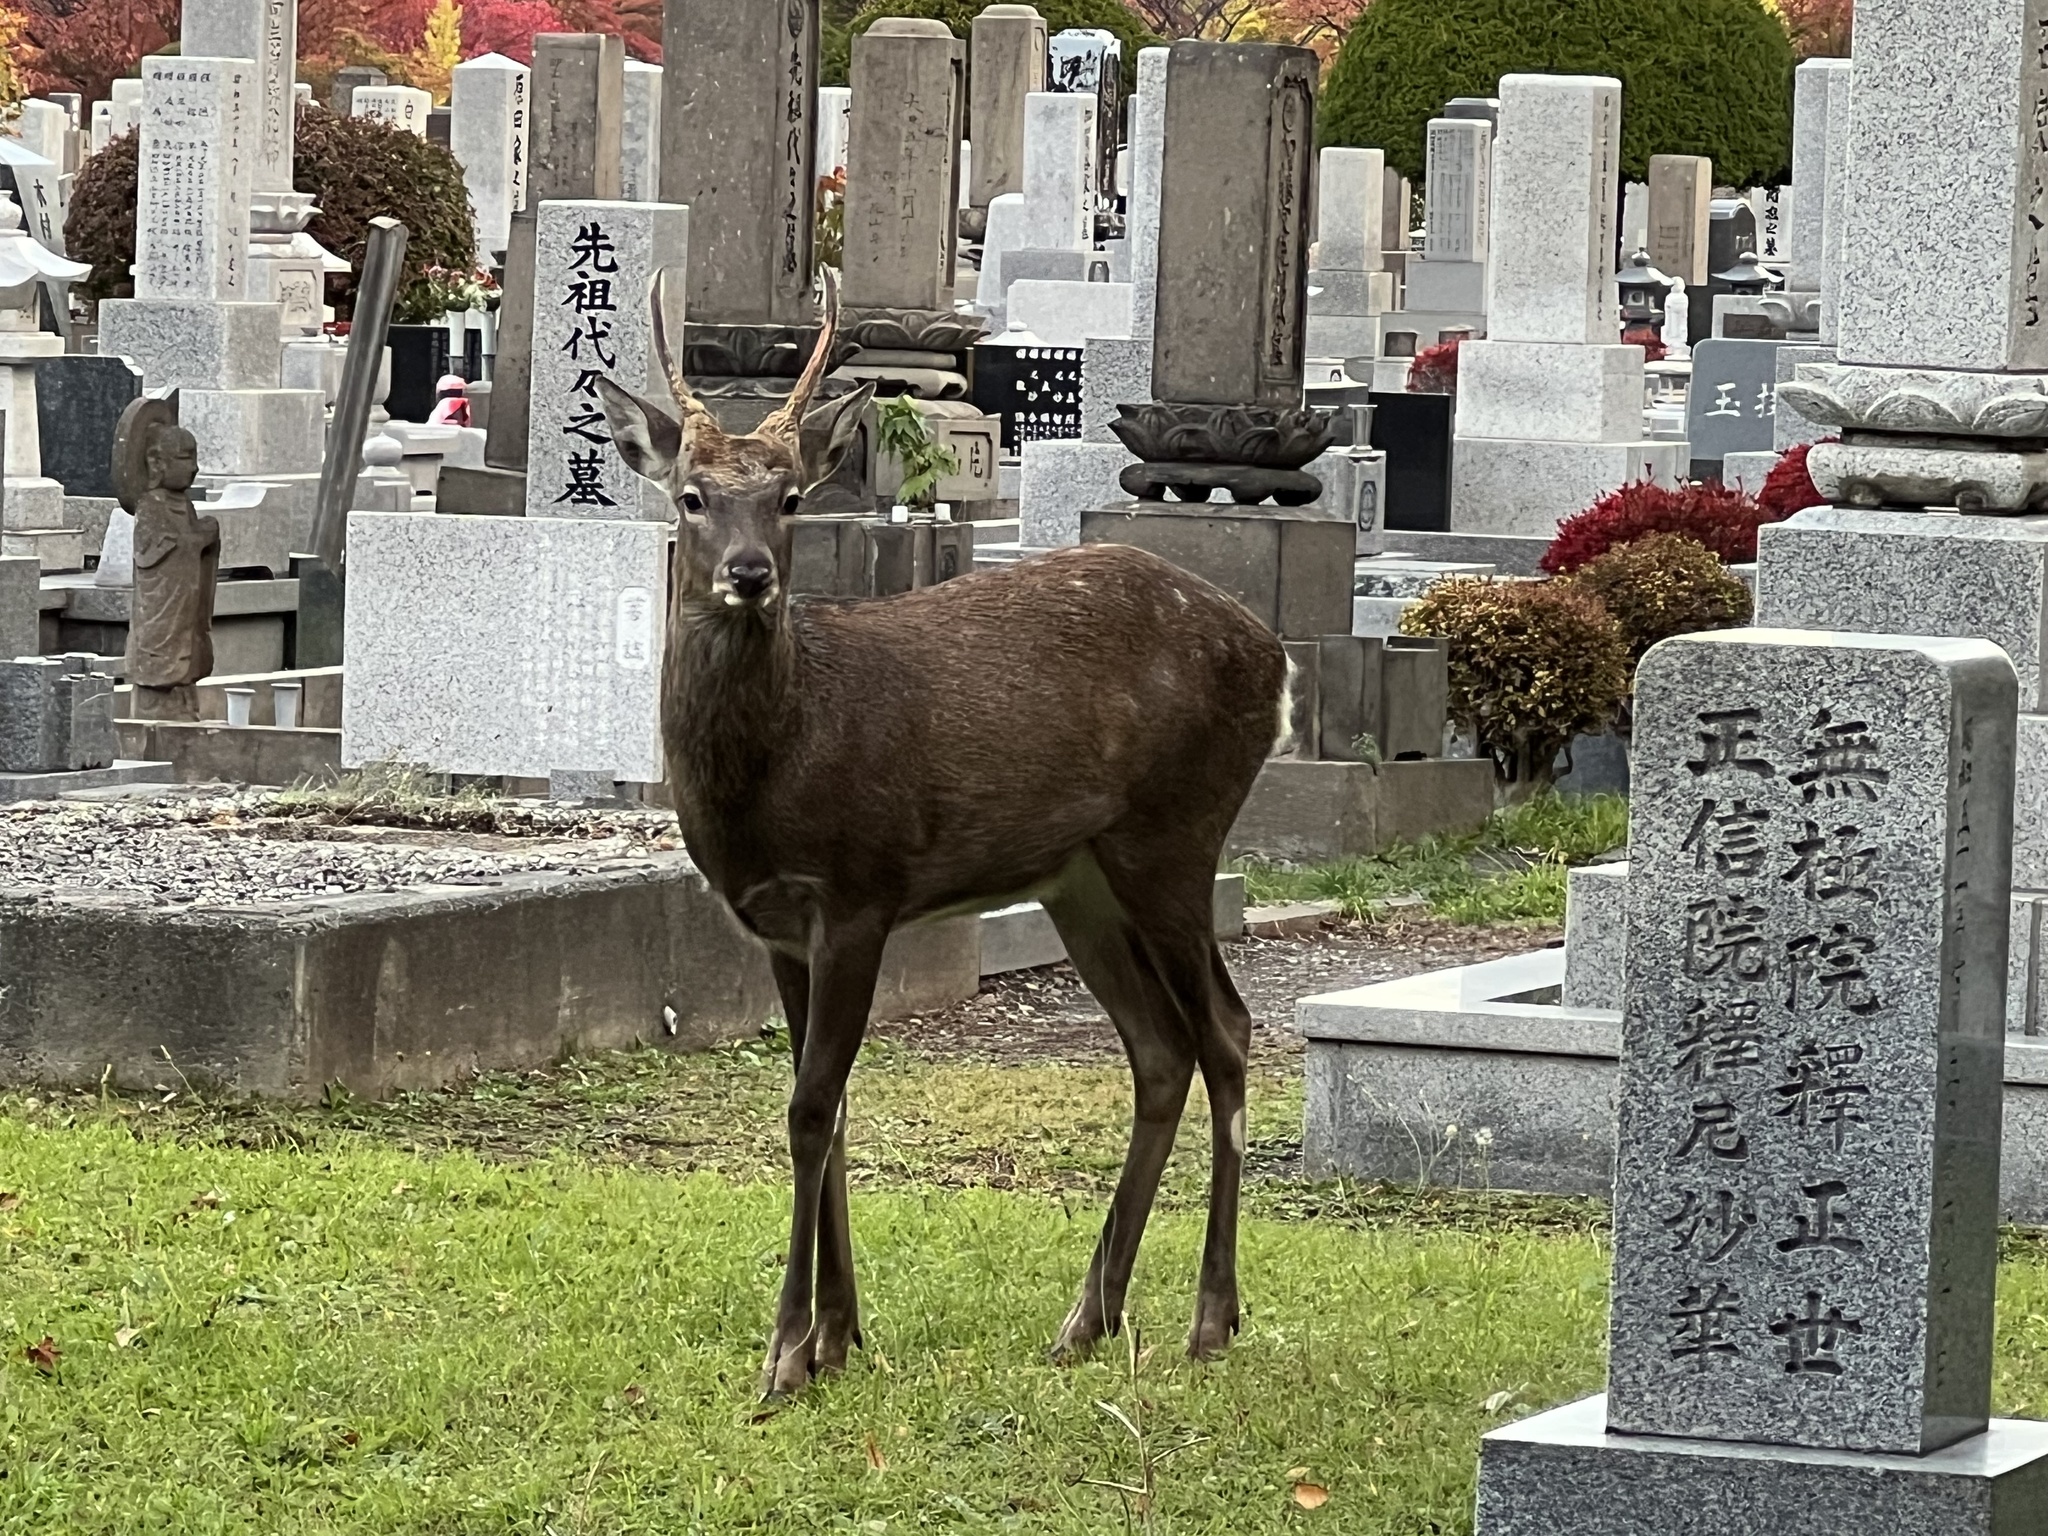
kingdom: Animalia
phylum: Chordata
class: Mammalia
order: Artiodactyla
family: Cervidae
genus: Cervus
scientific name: Cervus nippon
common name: Sika deer
